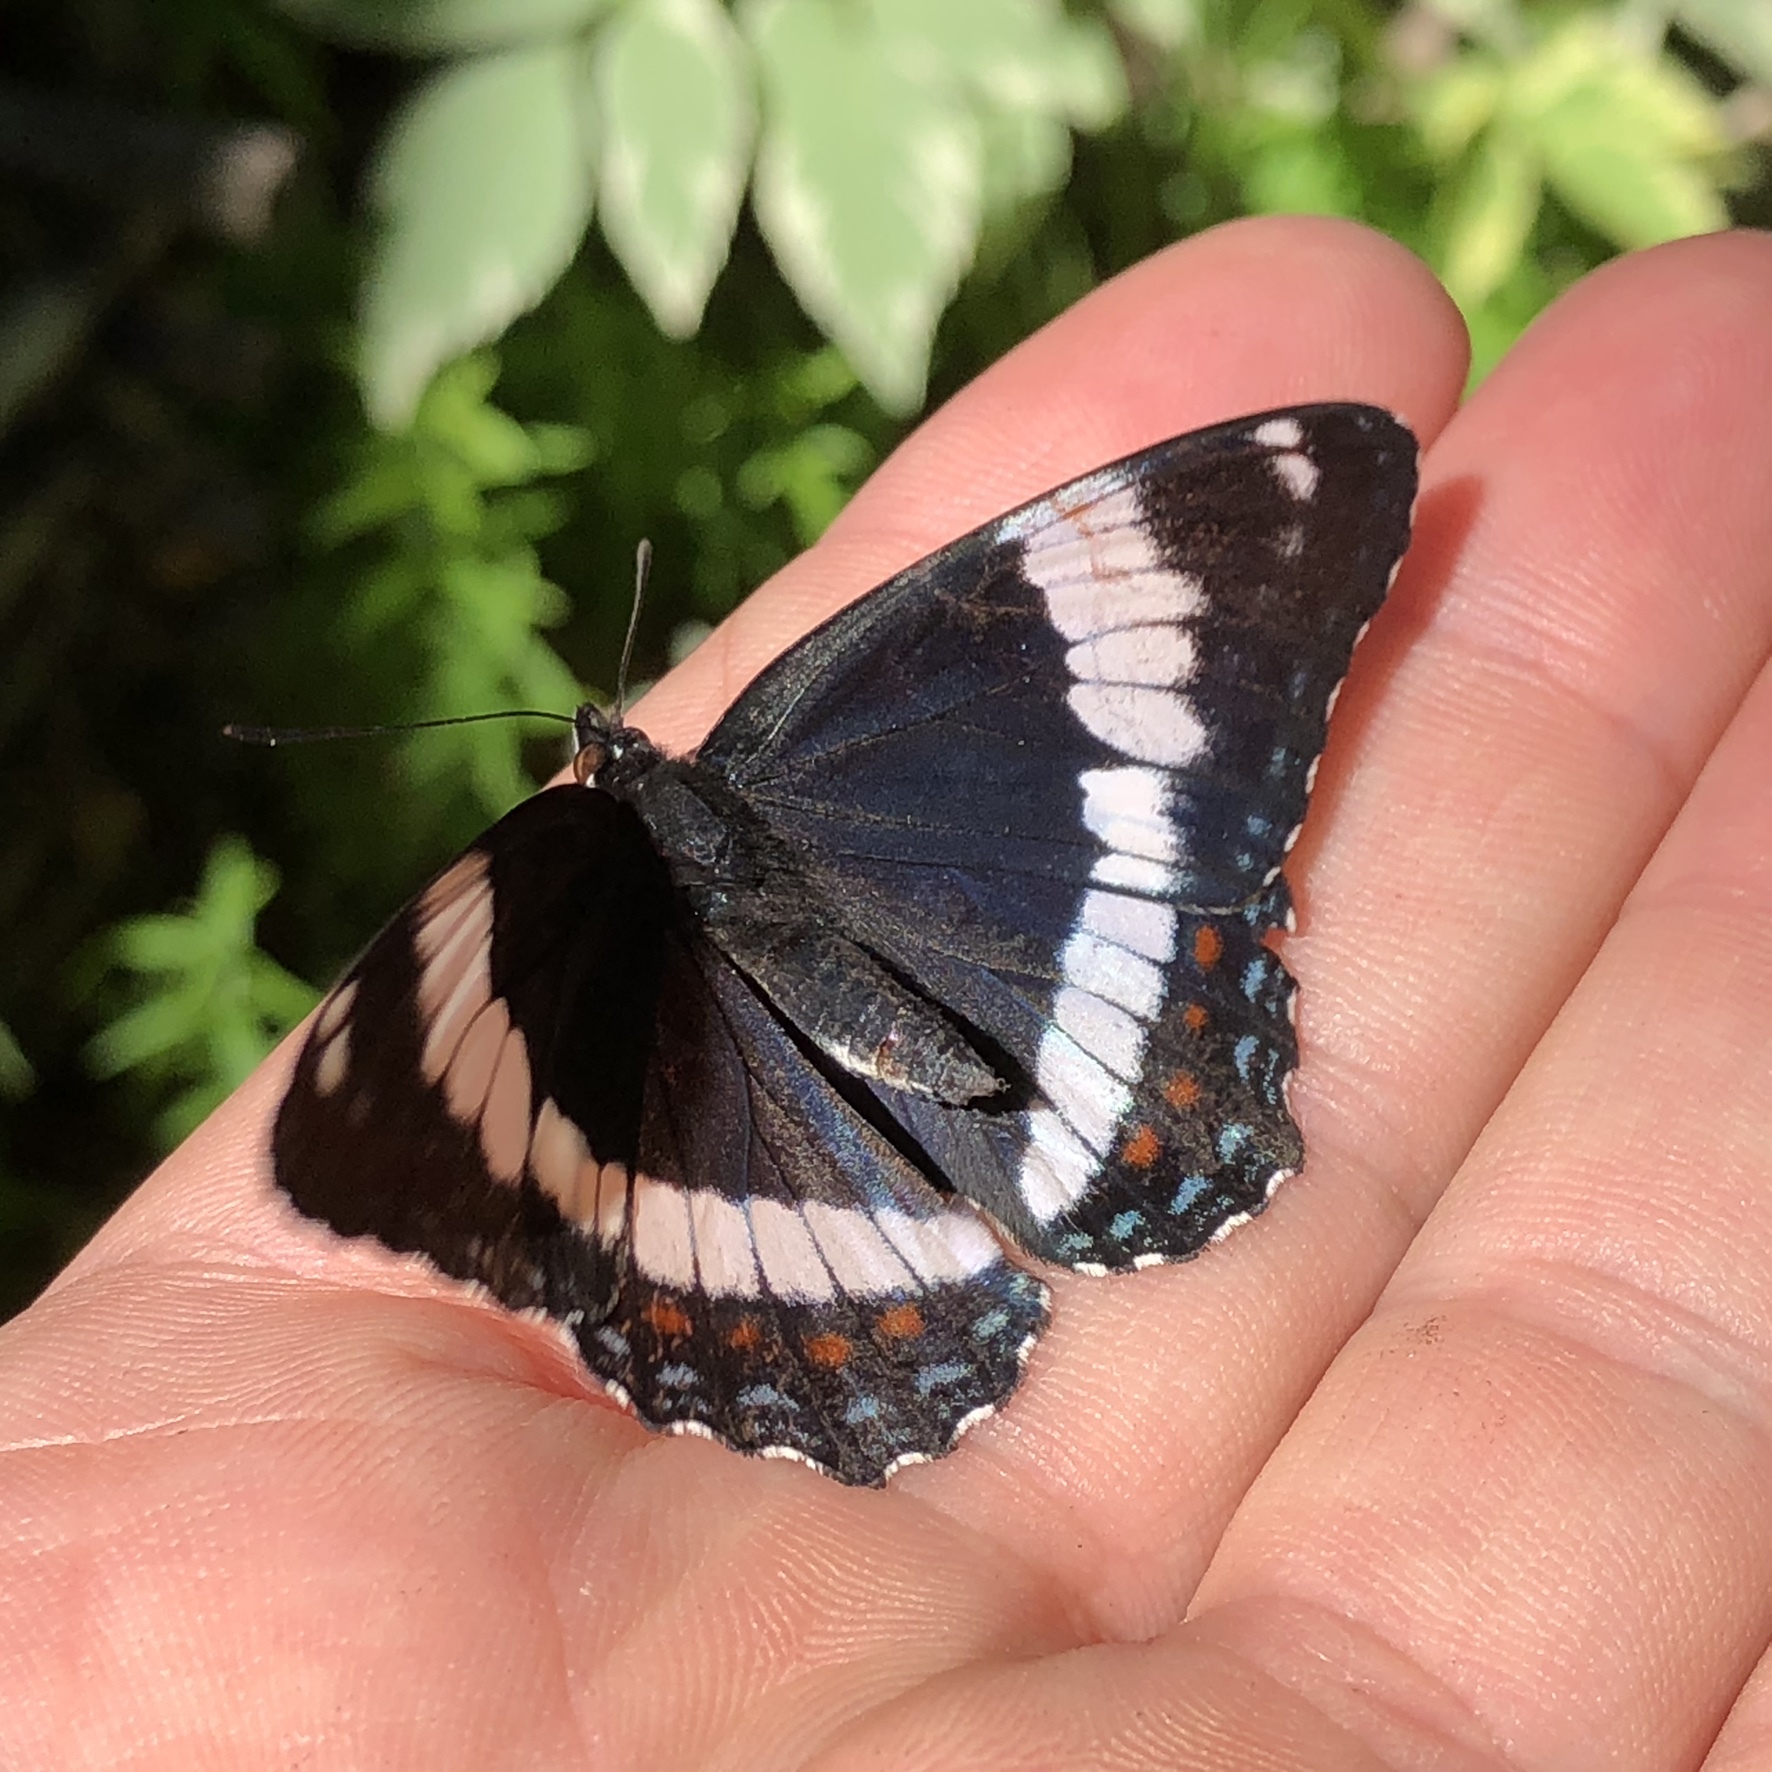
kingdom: Animalia
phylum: Arthropoda
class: Insecta
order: Lepidoptera
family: Nymphalidae
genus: Limenitis
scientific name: Limenitis arthemis
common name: Red-spotted admiral
